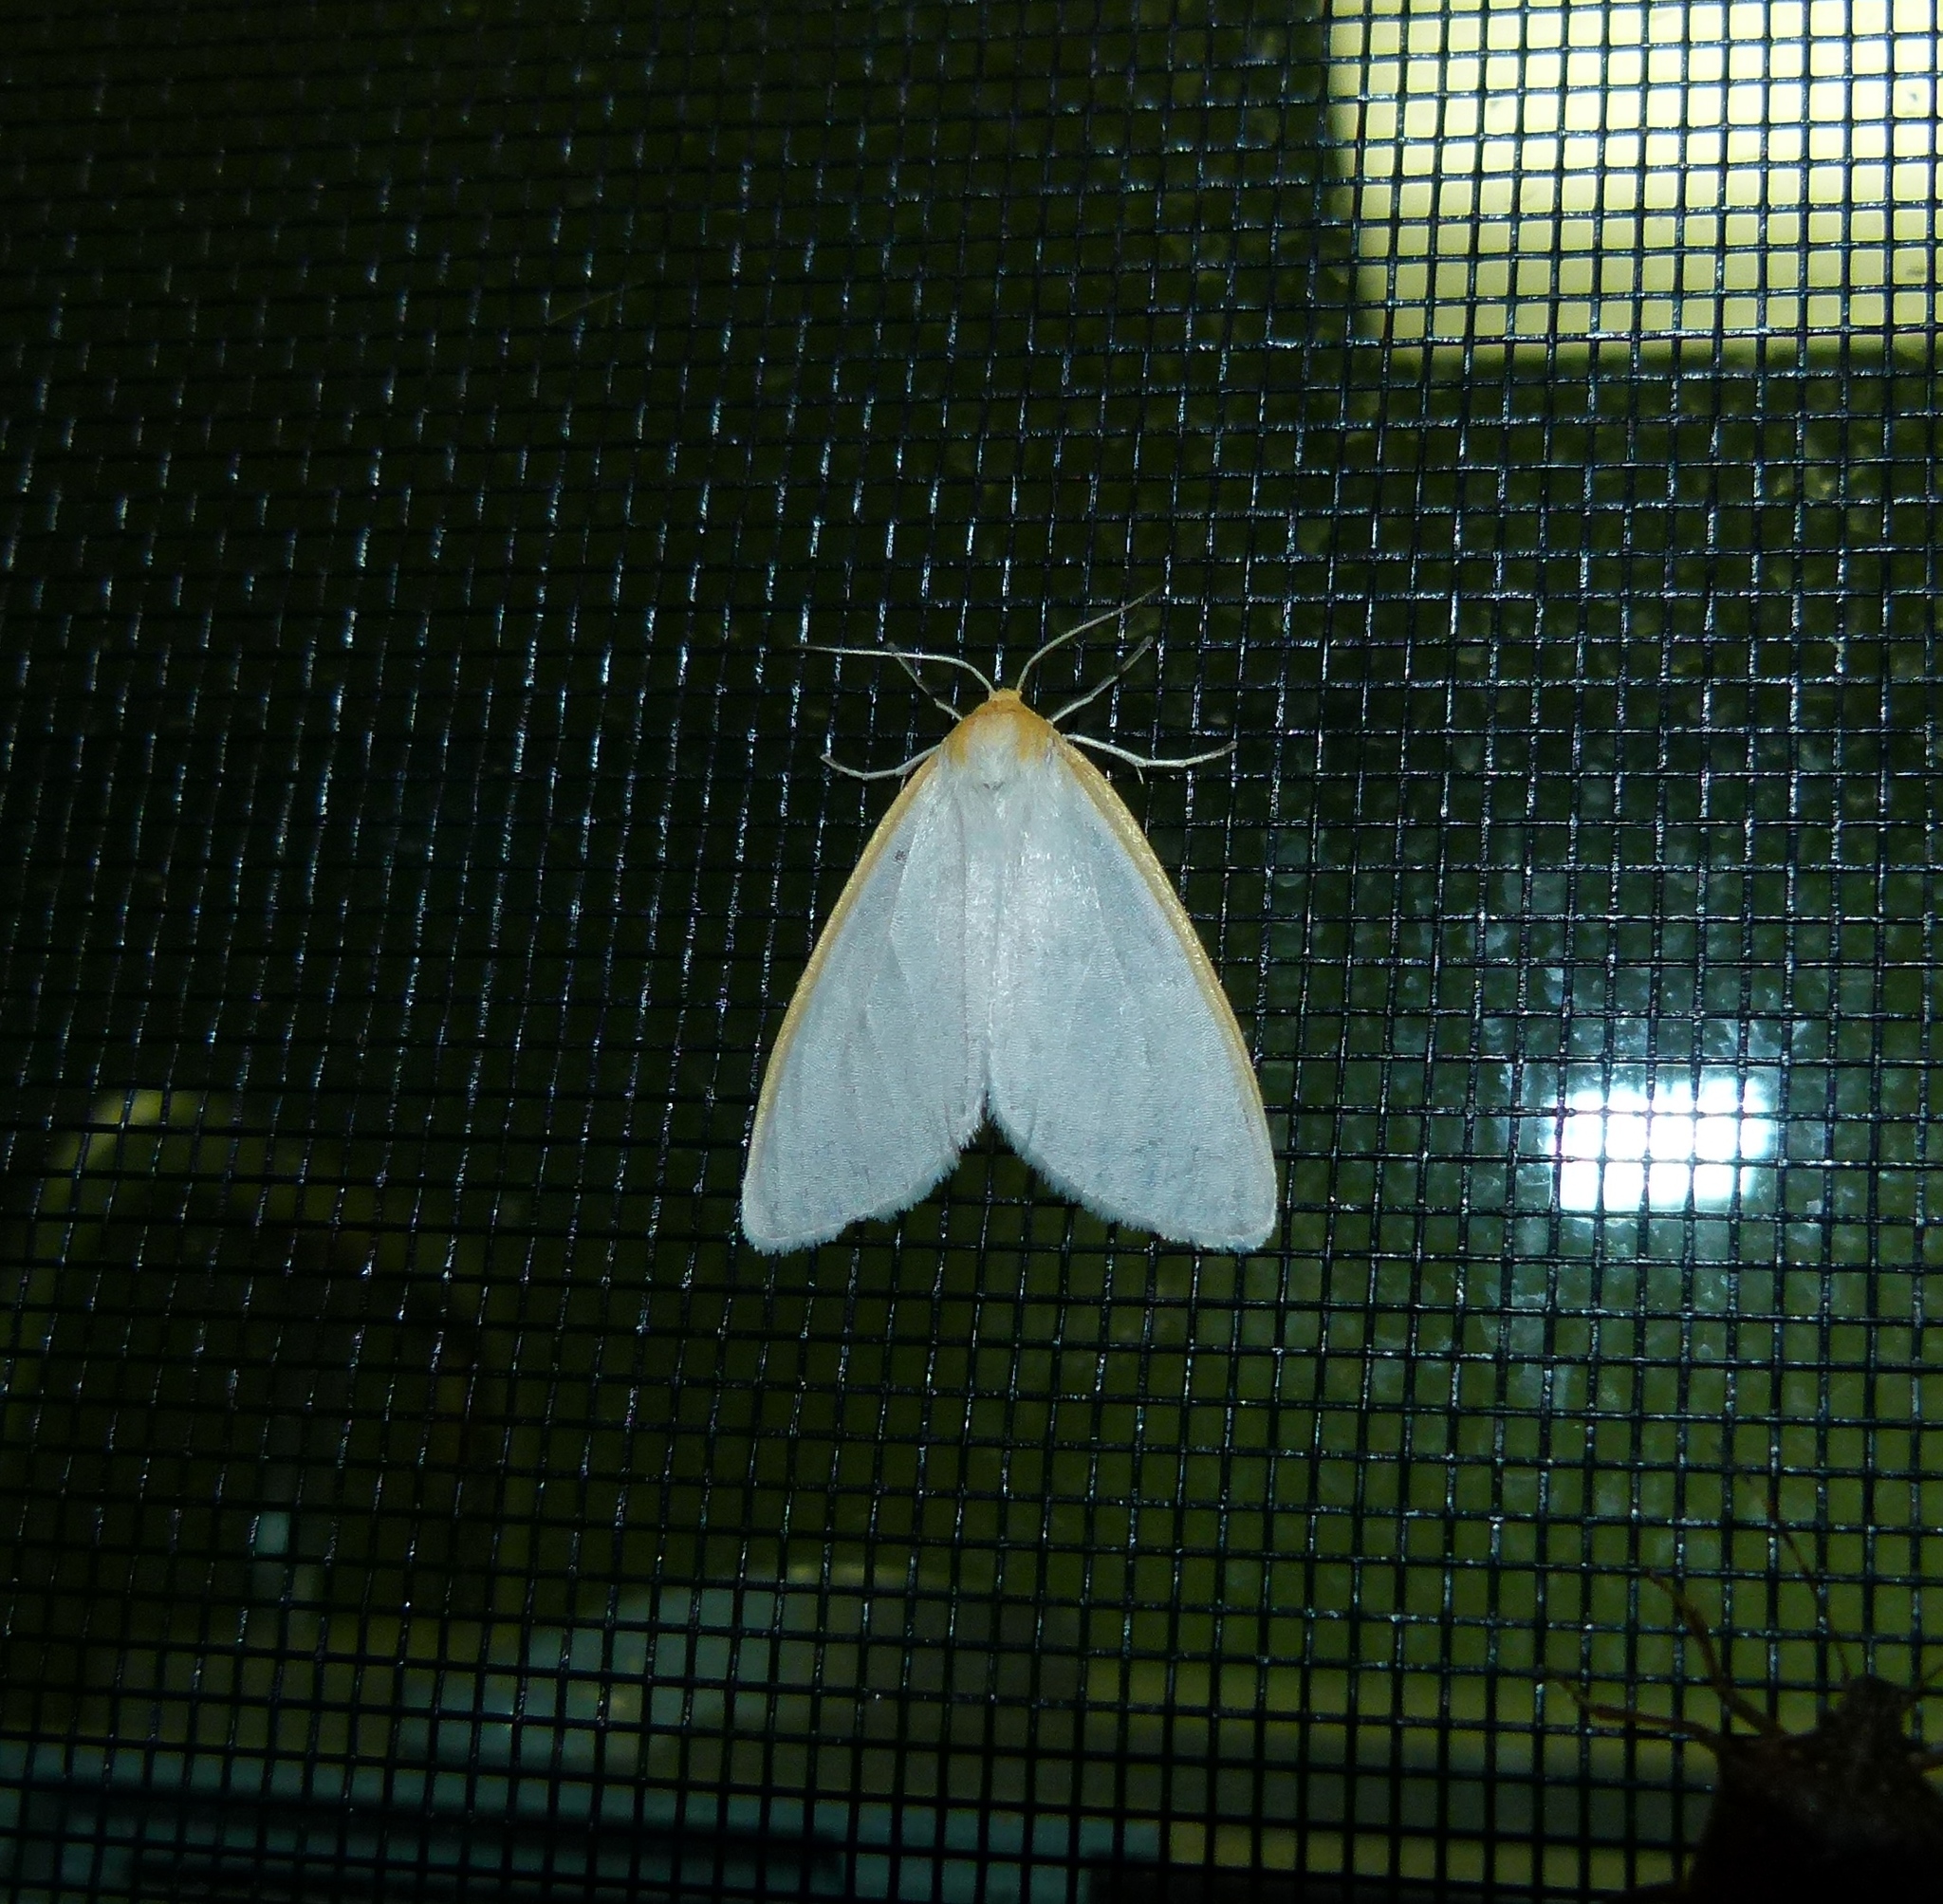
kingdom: Animalia
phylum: Arthropoda
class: Insecta
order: Lepidoptera
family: Erebidae
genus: Cycnia
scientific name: Cycnia tenera
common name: Delicate cycnia moth
